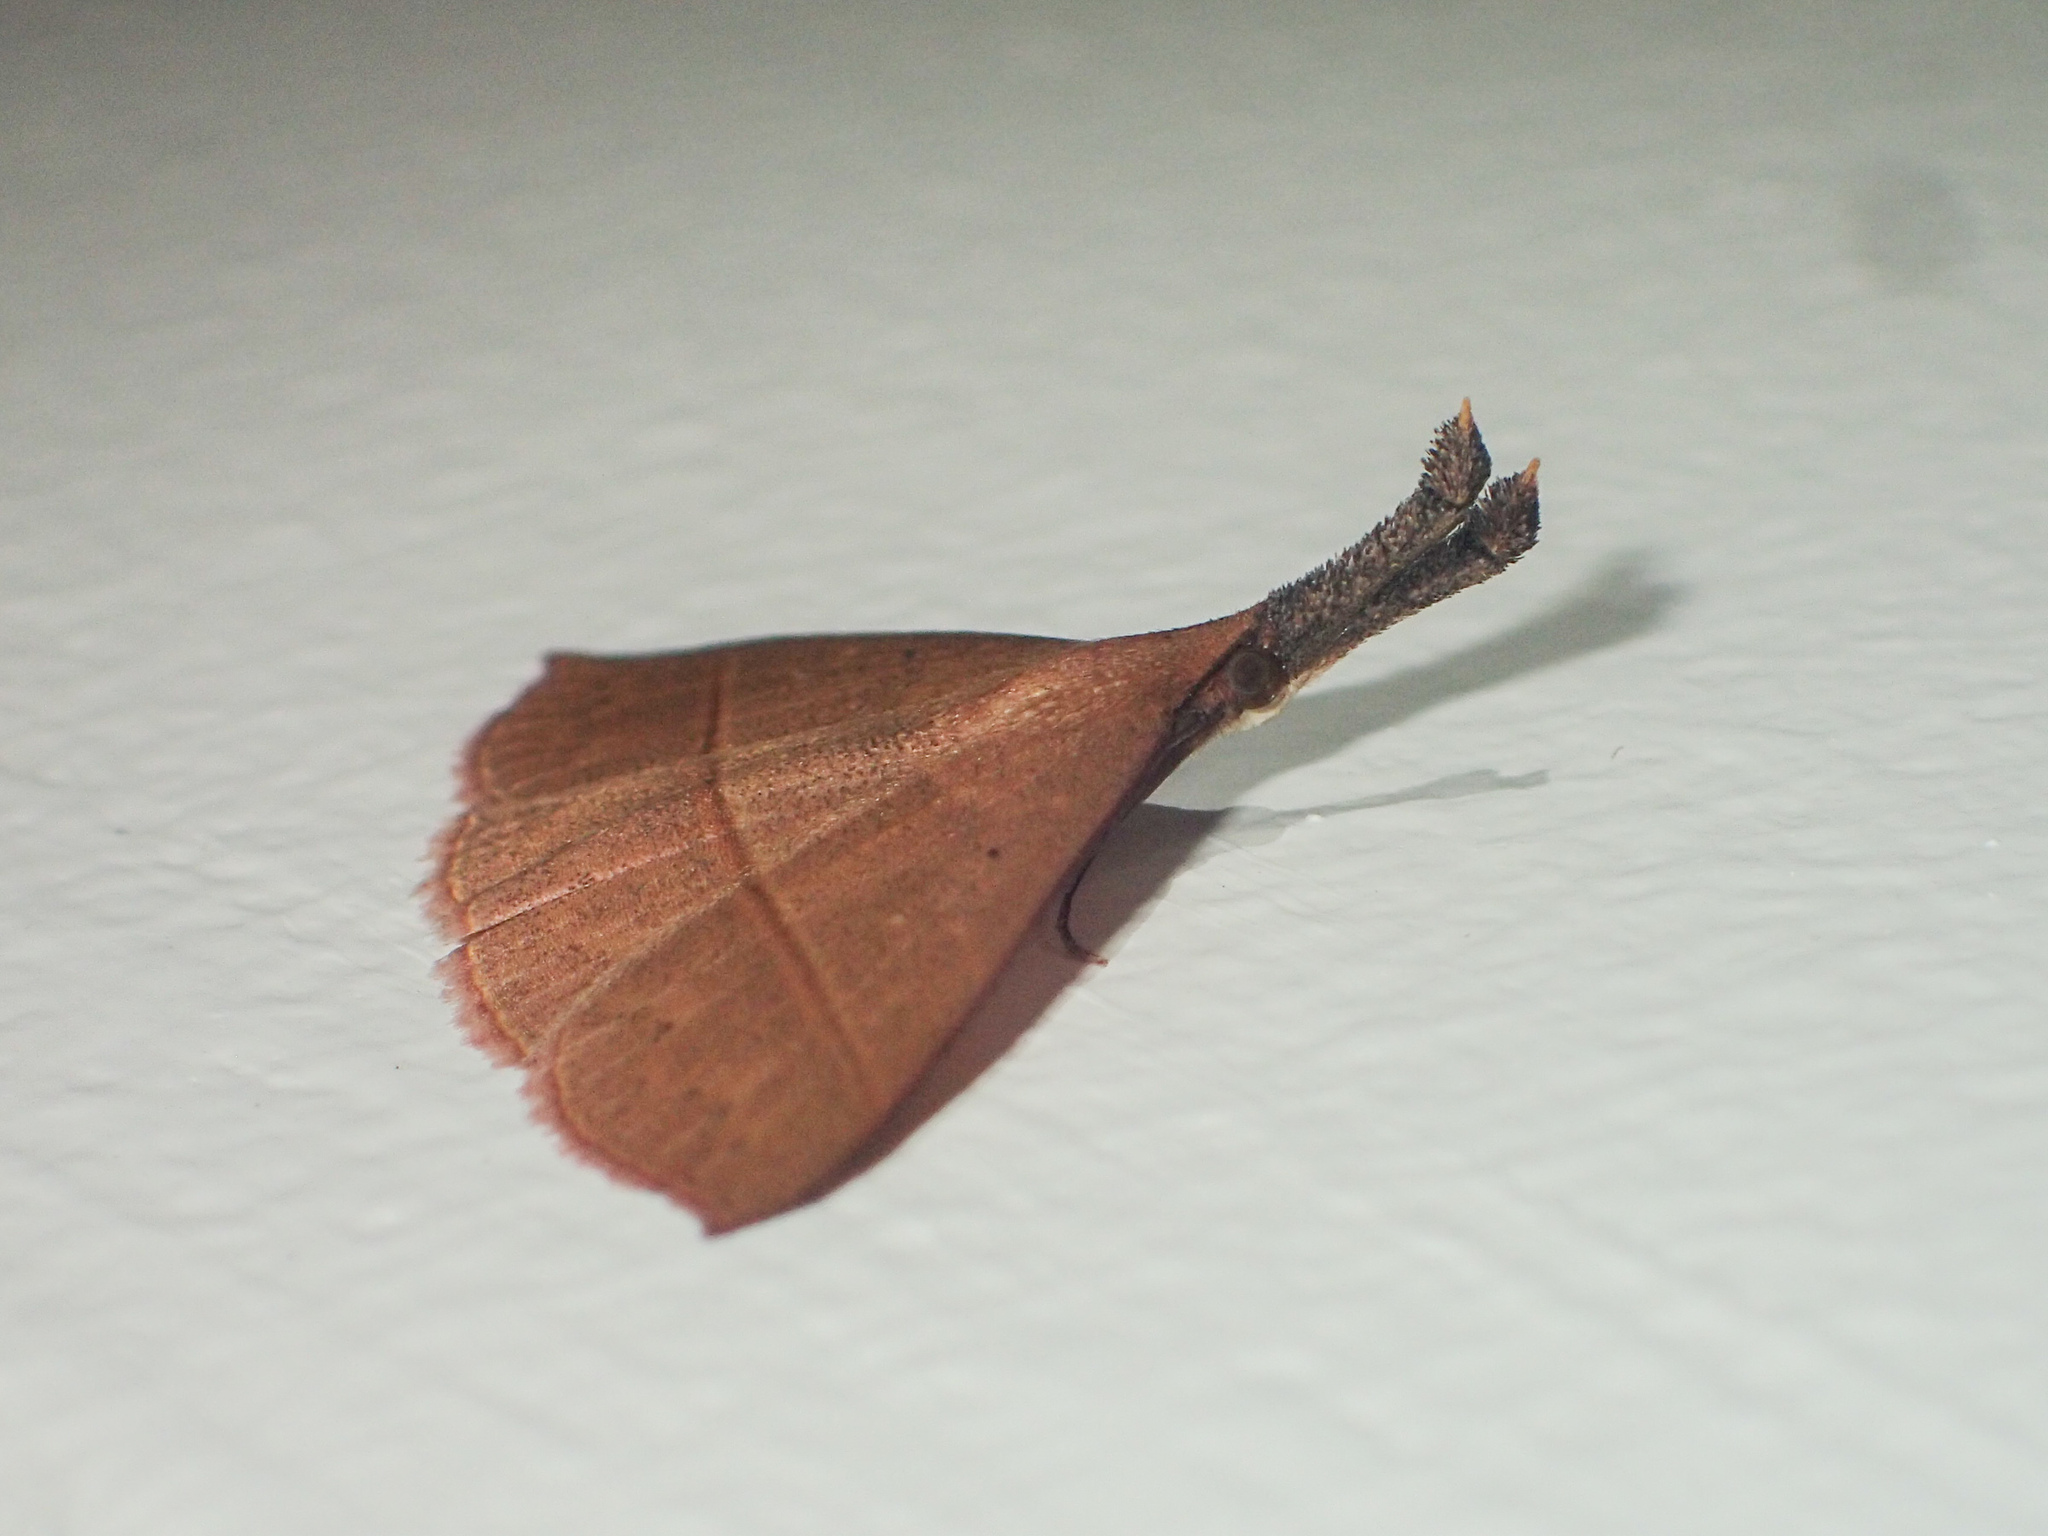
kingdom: Animalia
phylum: Arthropoda
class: Insecta
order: Lepidoptera
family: Erebidae
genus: Marapana
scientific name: Marapana flavicosta
